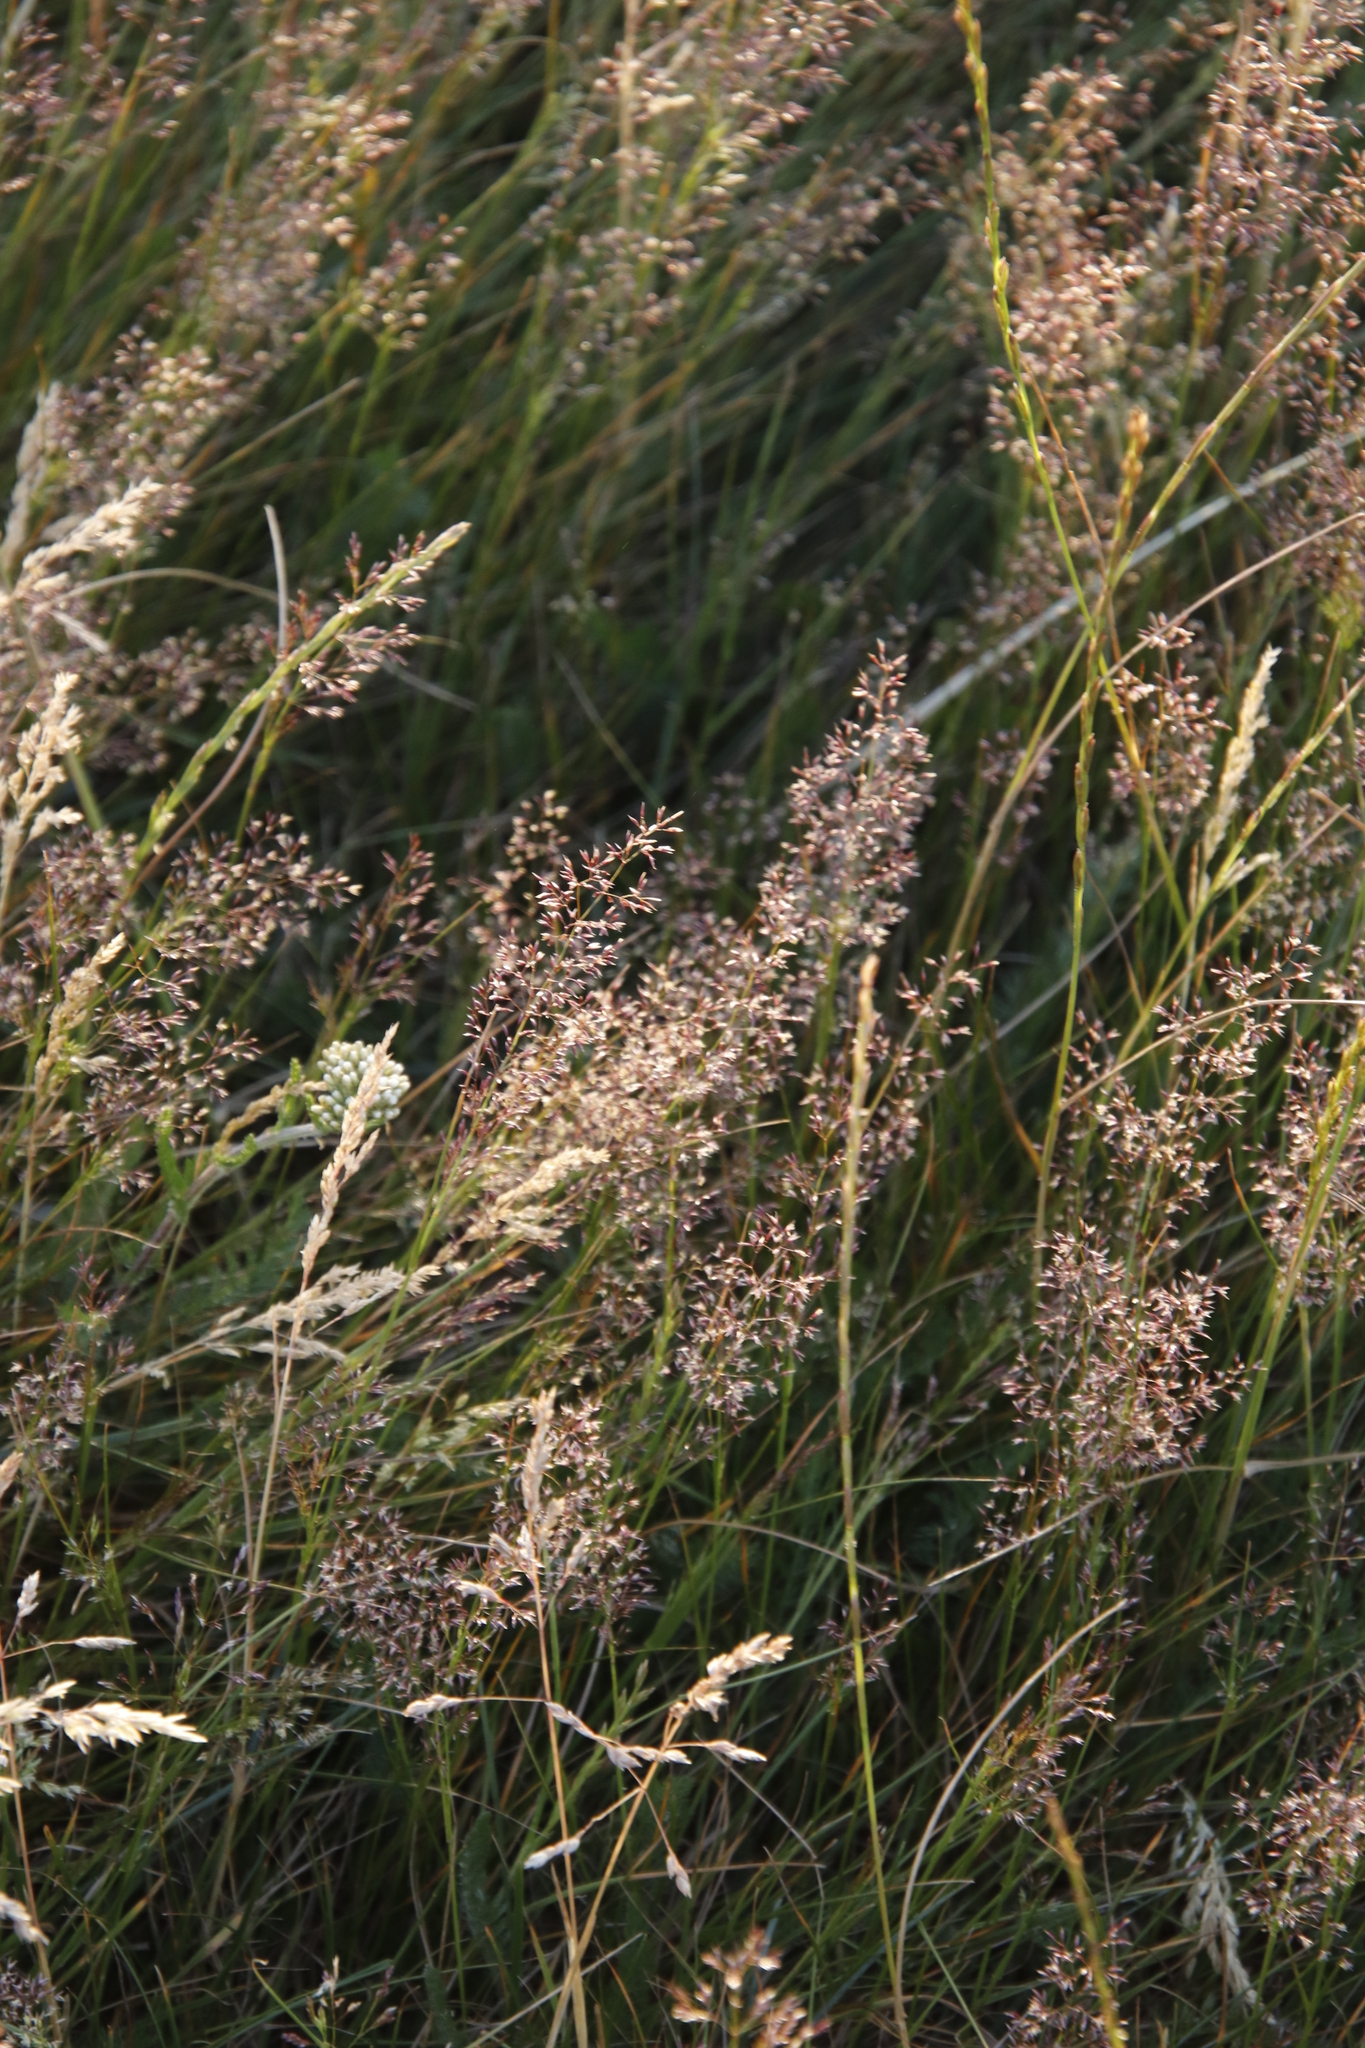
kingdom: Plantae
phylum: Tracheophyta
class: Liliopsida
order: Poales
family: Poaceae
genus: Agrostis
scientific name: Agrostis capillaris
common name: Colonial bentgrass
